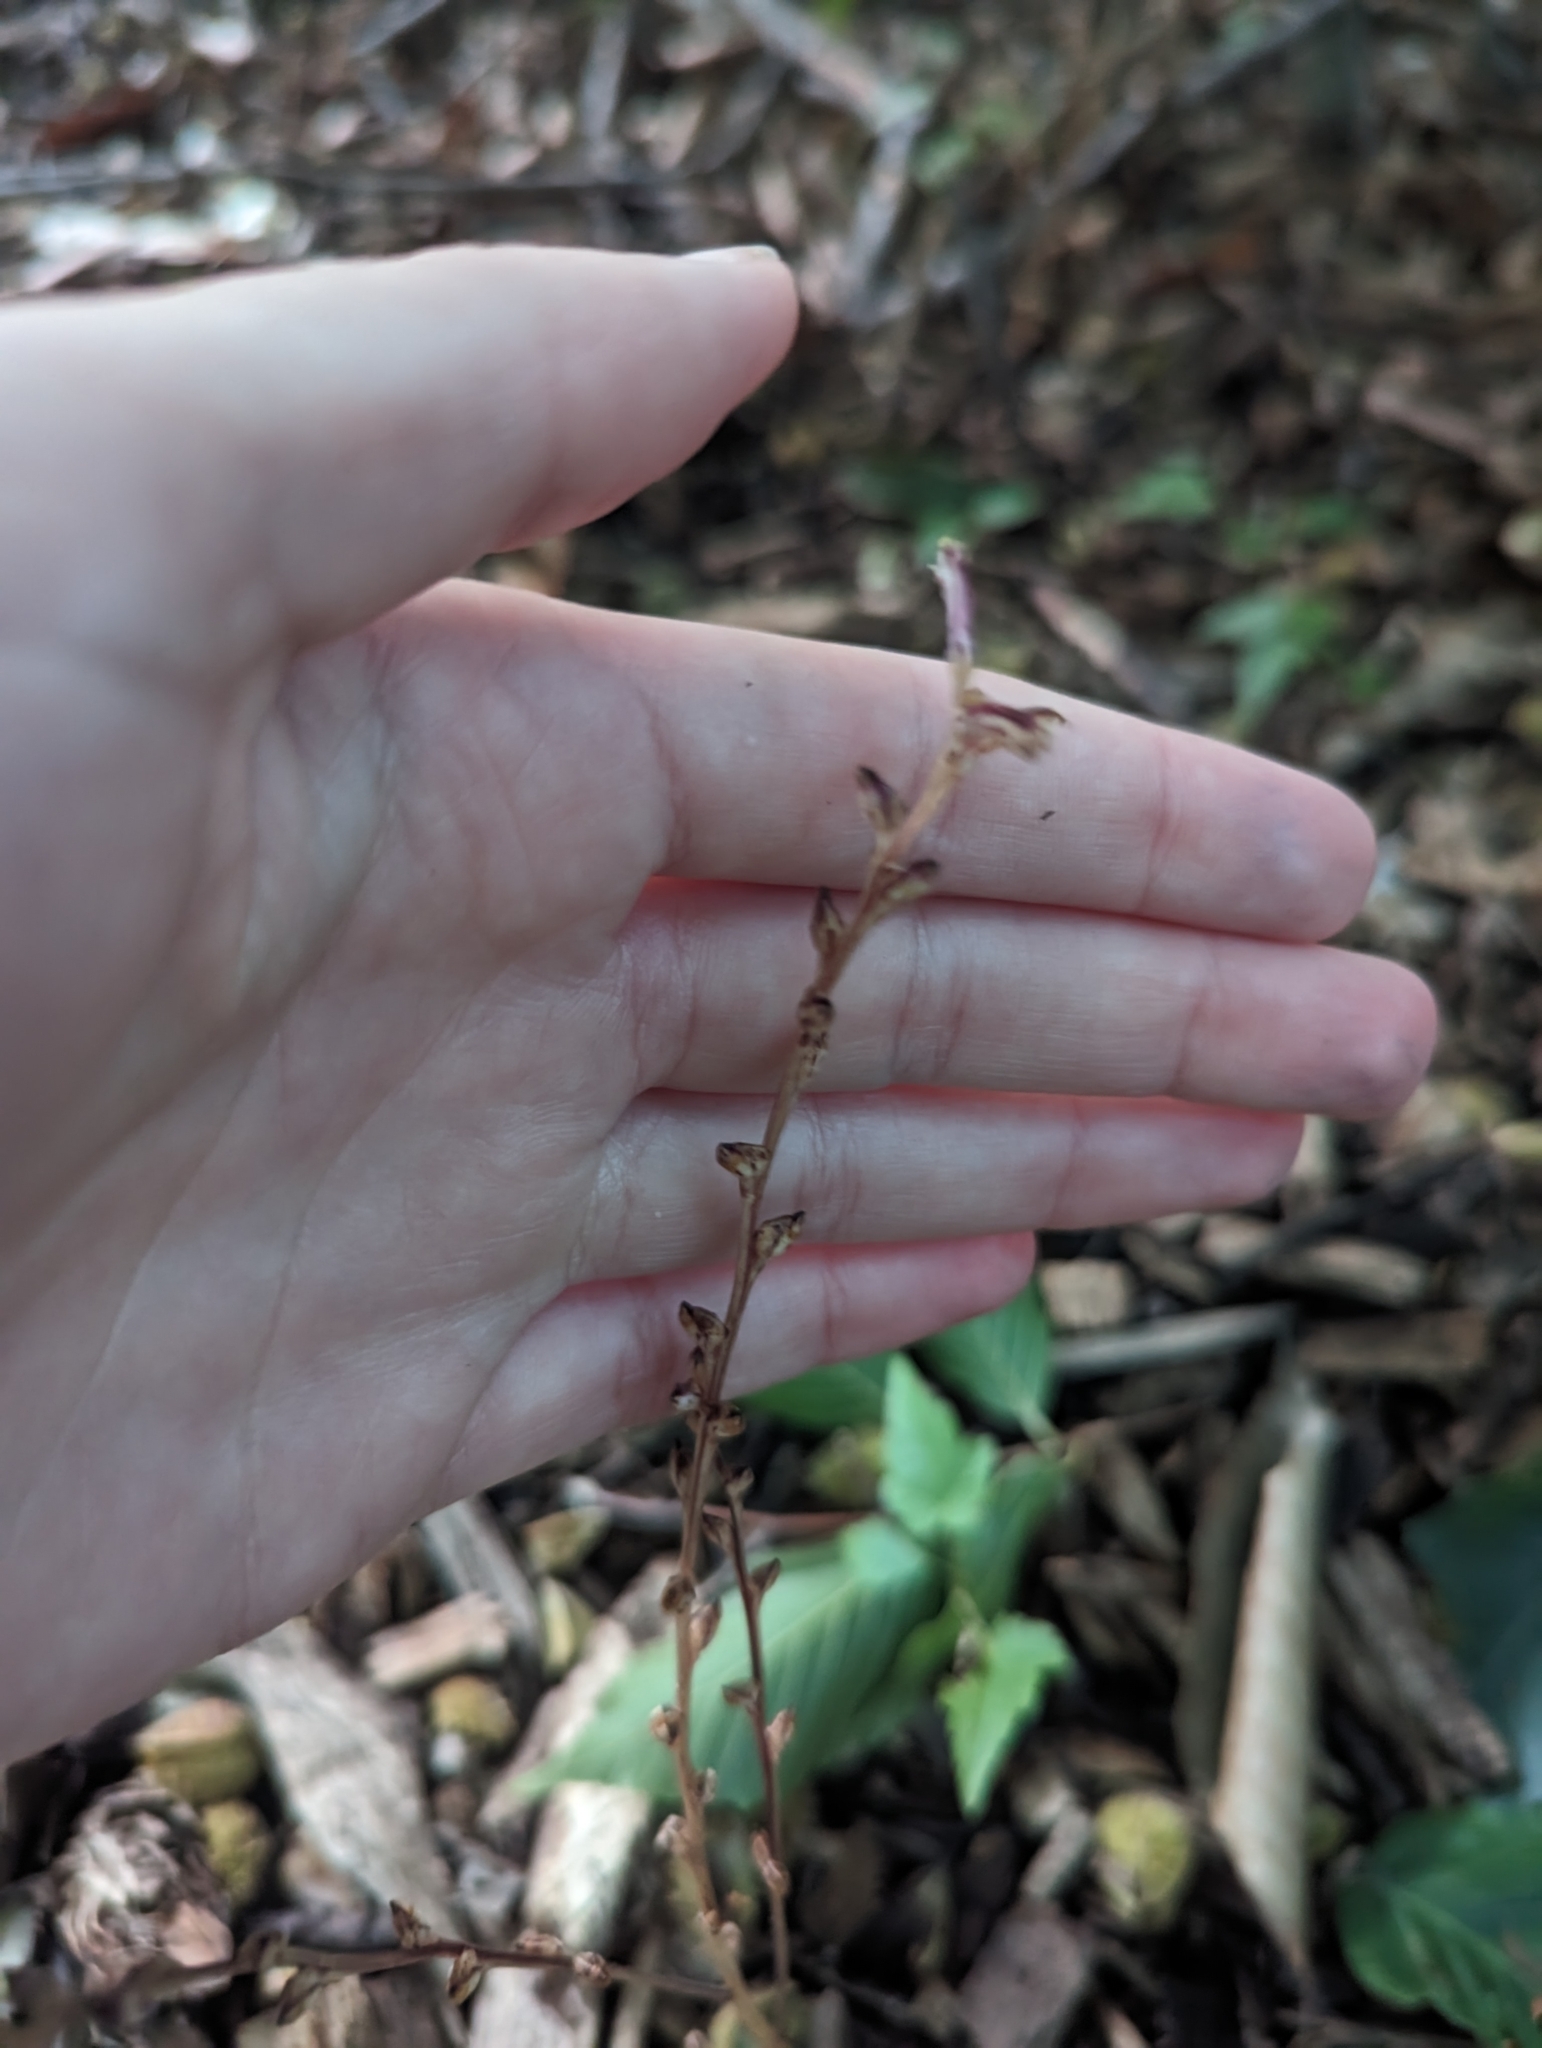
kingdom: Plantae
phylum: Tracheophyta
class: Magnoliopsida
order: Lamiales
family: Orobanchaceae
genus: Epifagus
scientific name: Epifagus virginiana
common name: Beechdrops
